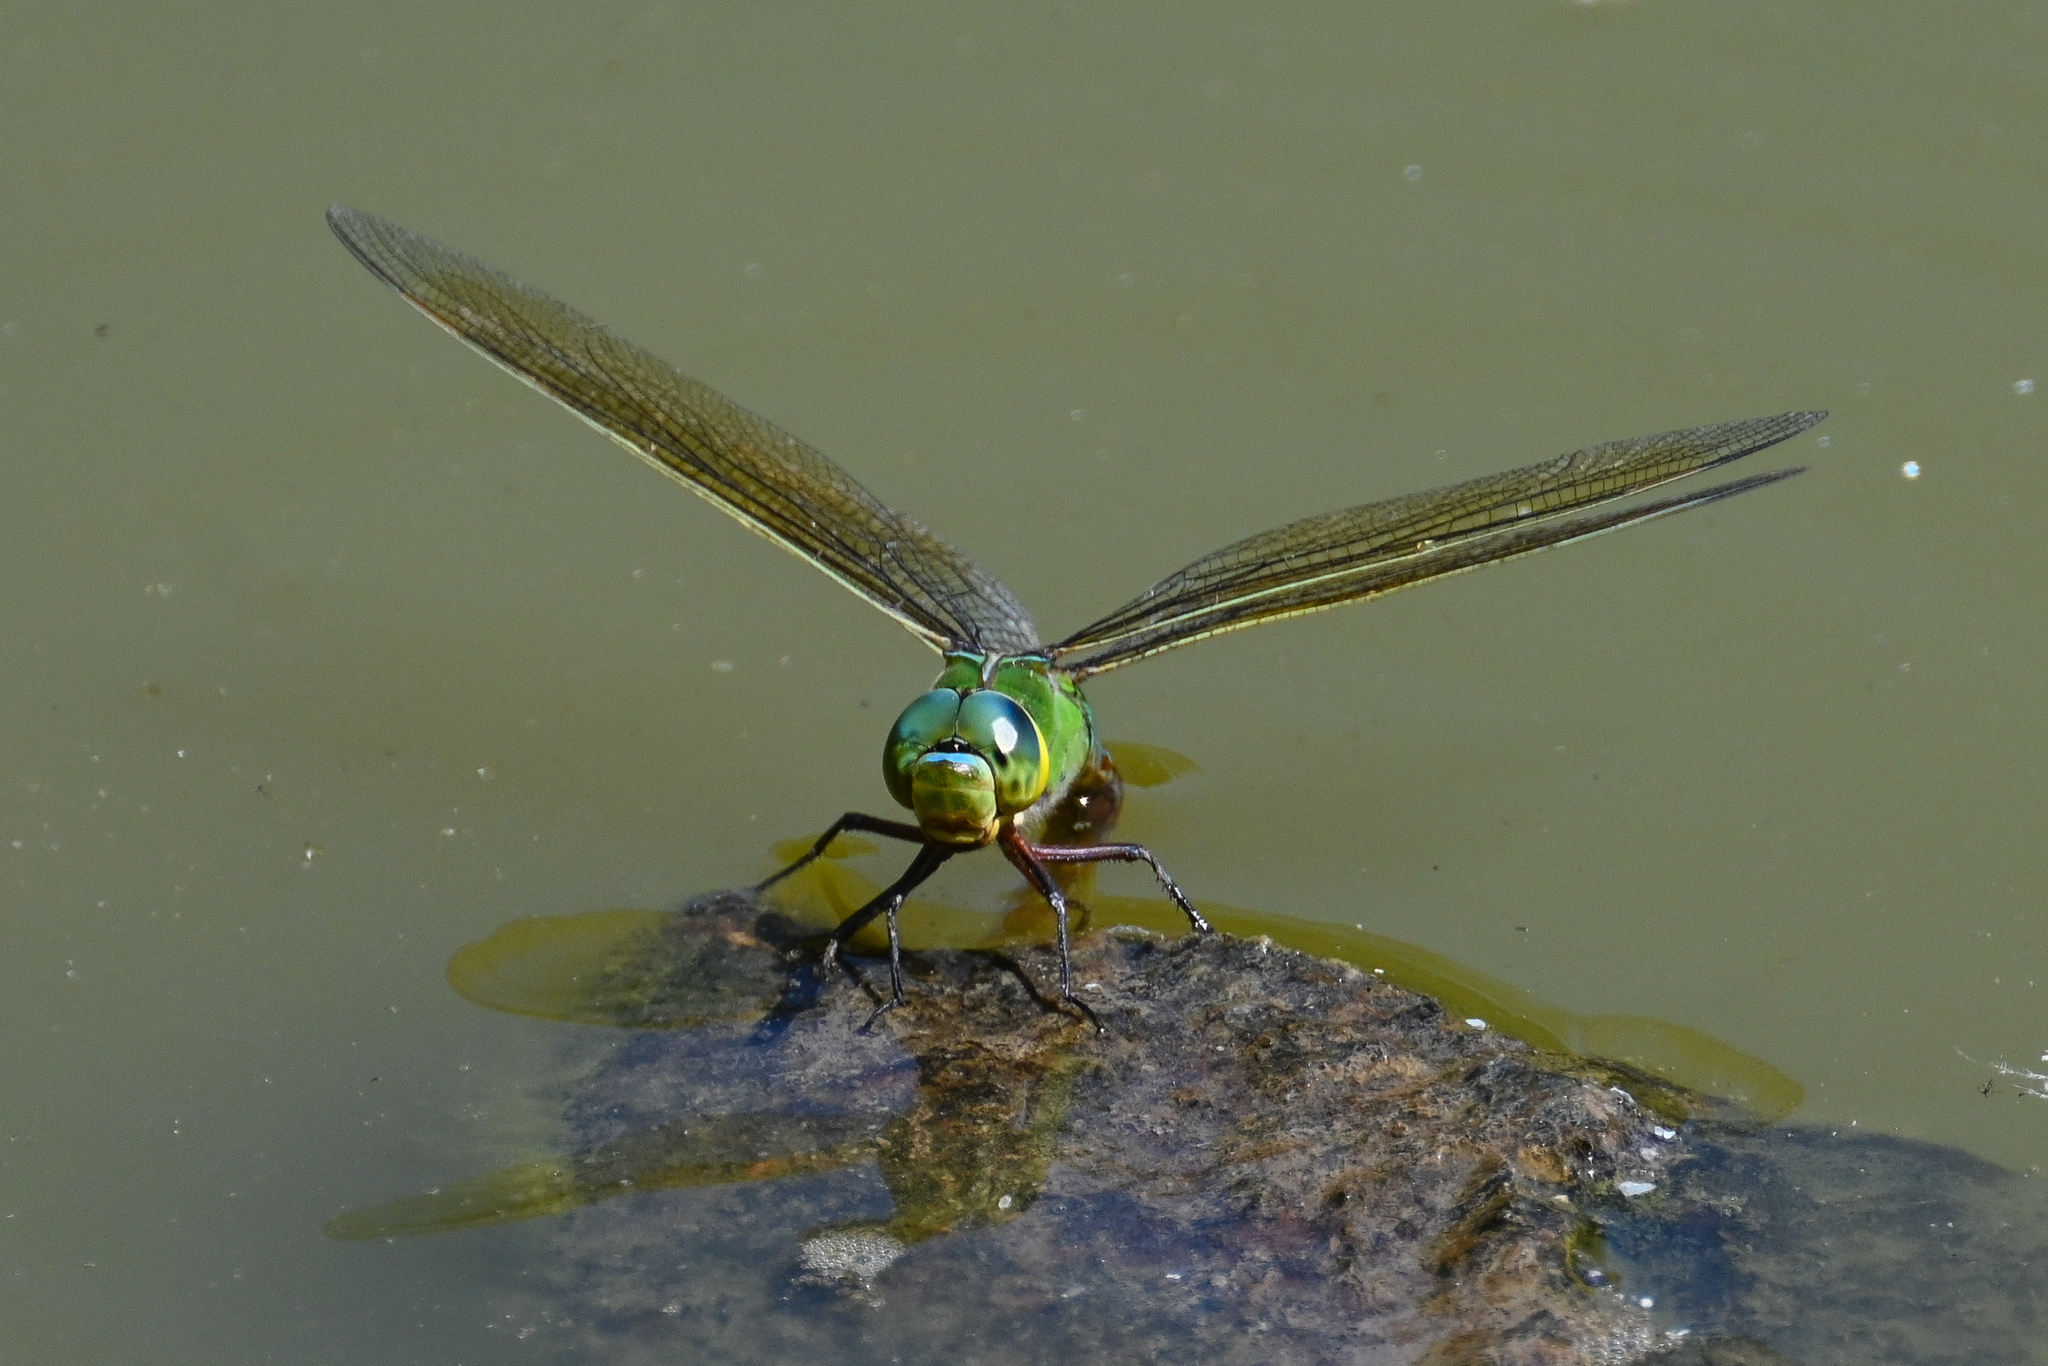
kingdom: Animalia
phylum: Arthropoda
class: Insecta
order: Odonata
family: Aeshnidae
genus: Anax
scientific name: Anax imperator
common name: Emperor dragonfly
